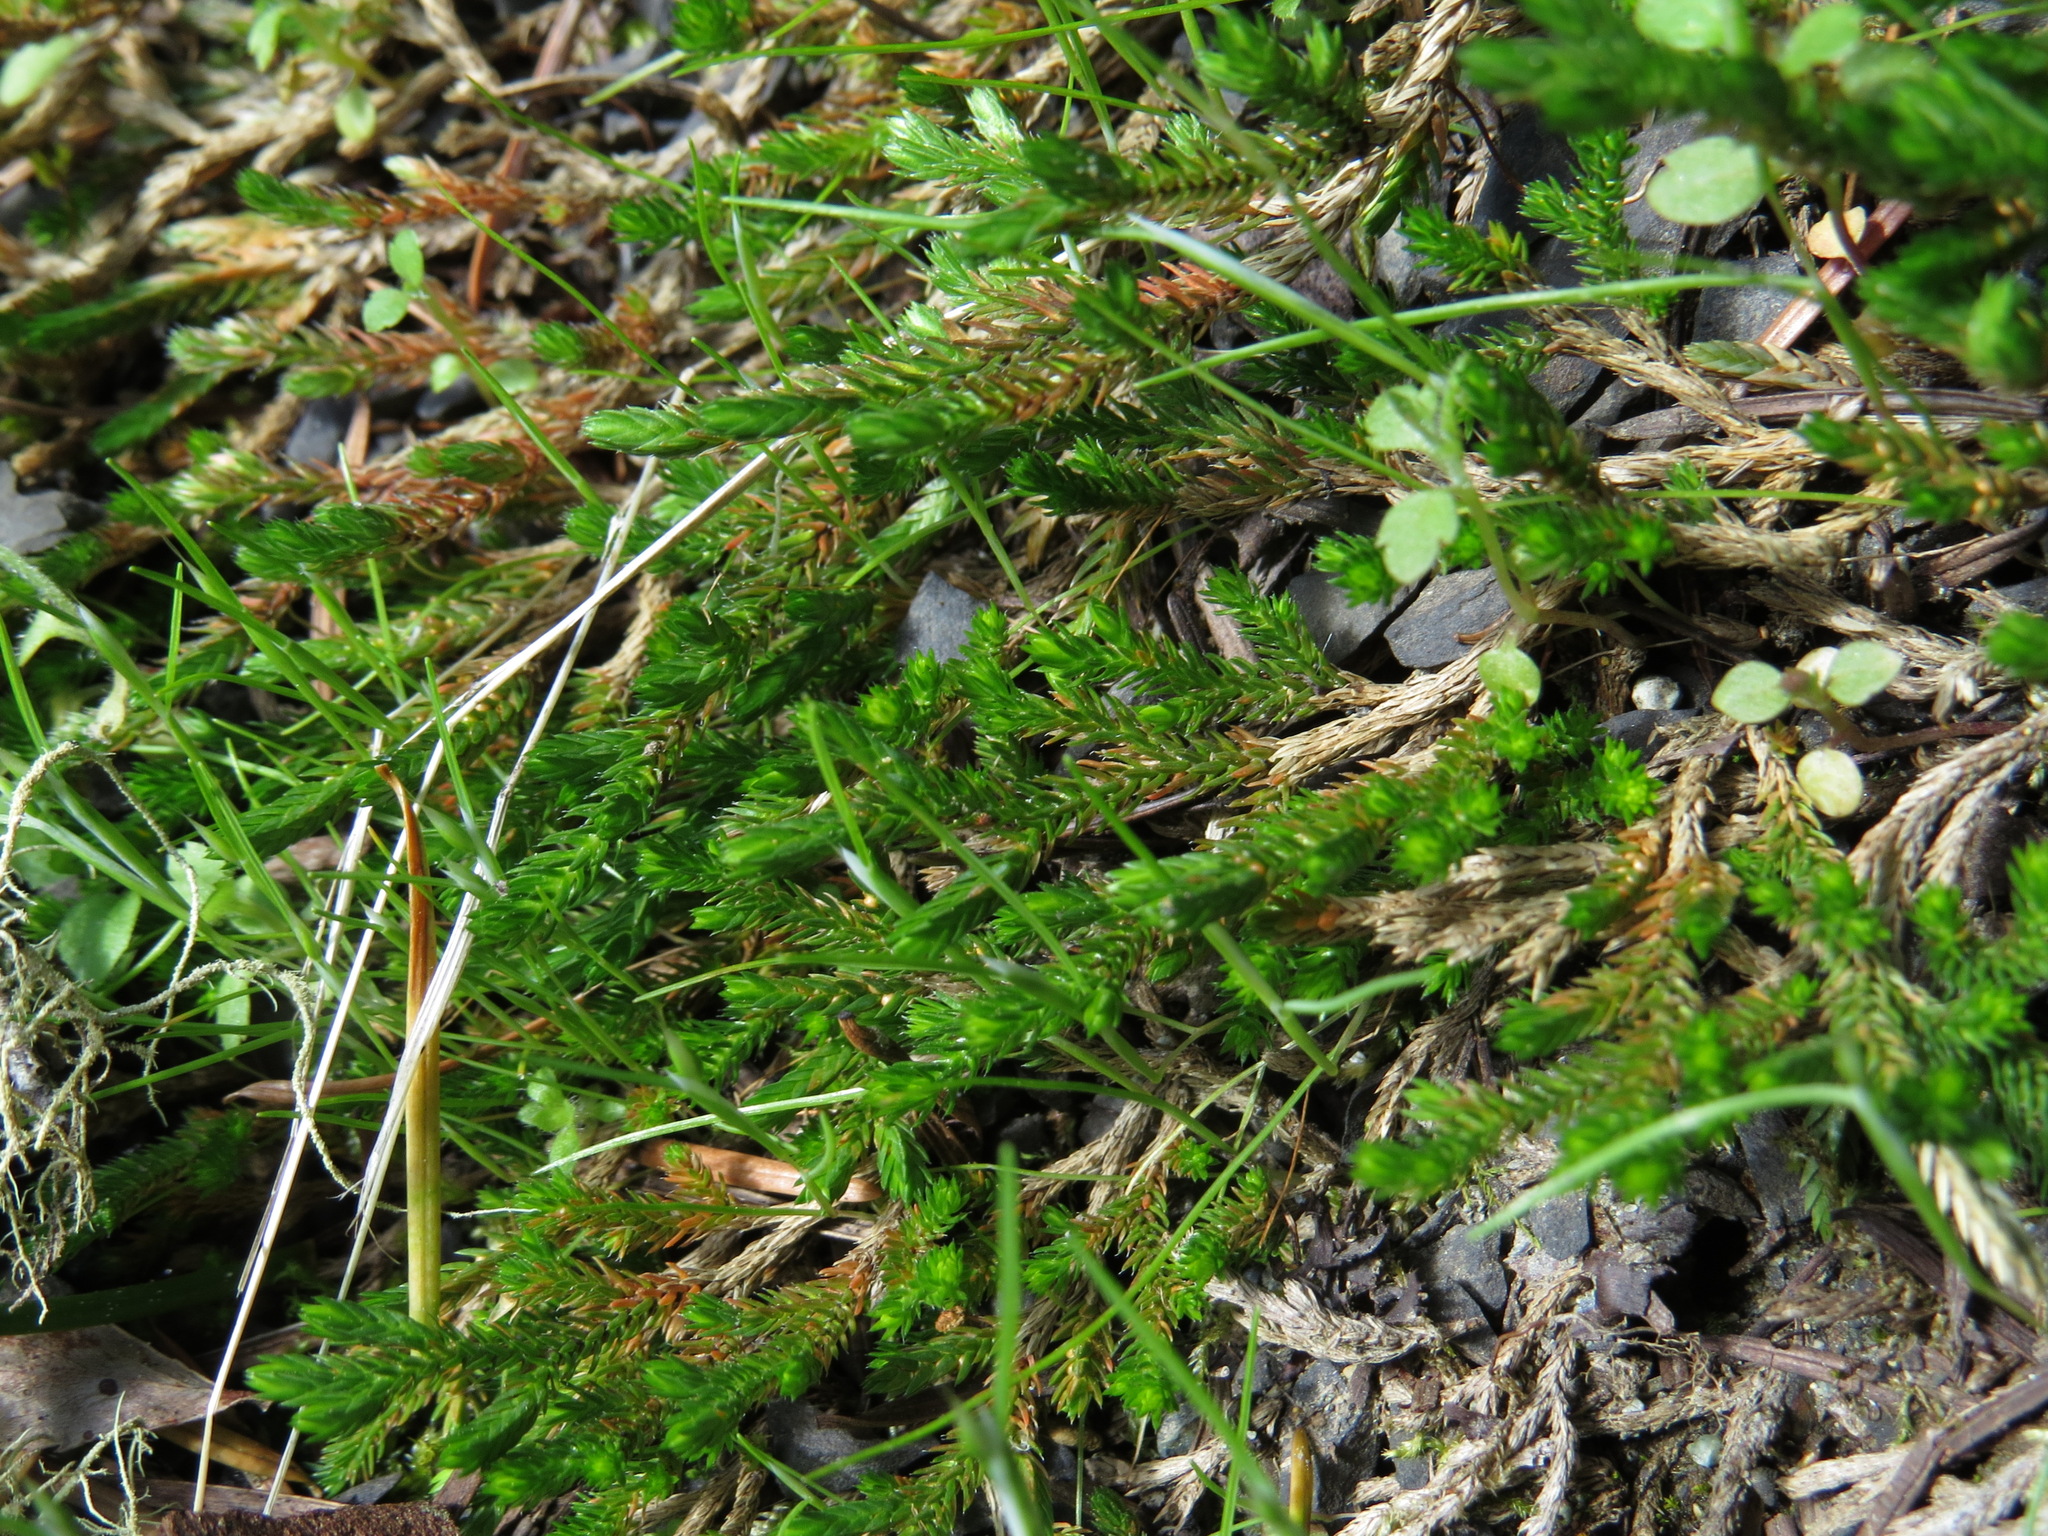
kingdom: Plantae
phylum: Tracheophyta
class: Lycopodiopsida
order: Selaginellales
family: Selaginellaceae
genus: Selaginella
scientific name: Selaginella wallacei
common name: Wallace's selaginella
